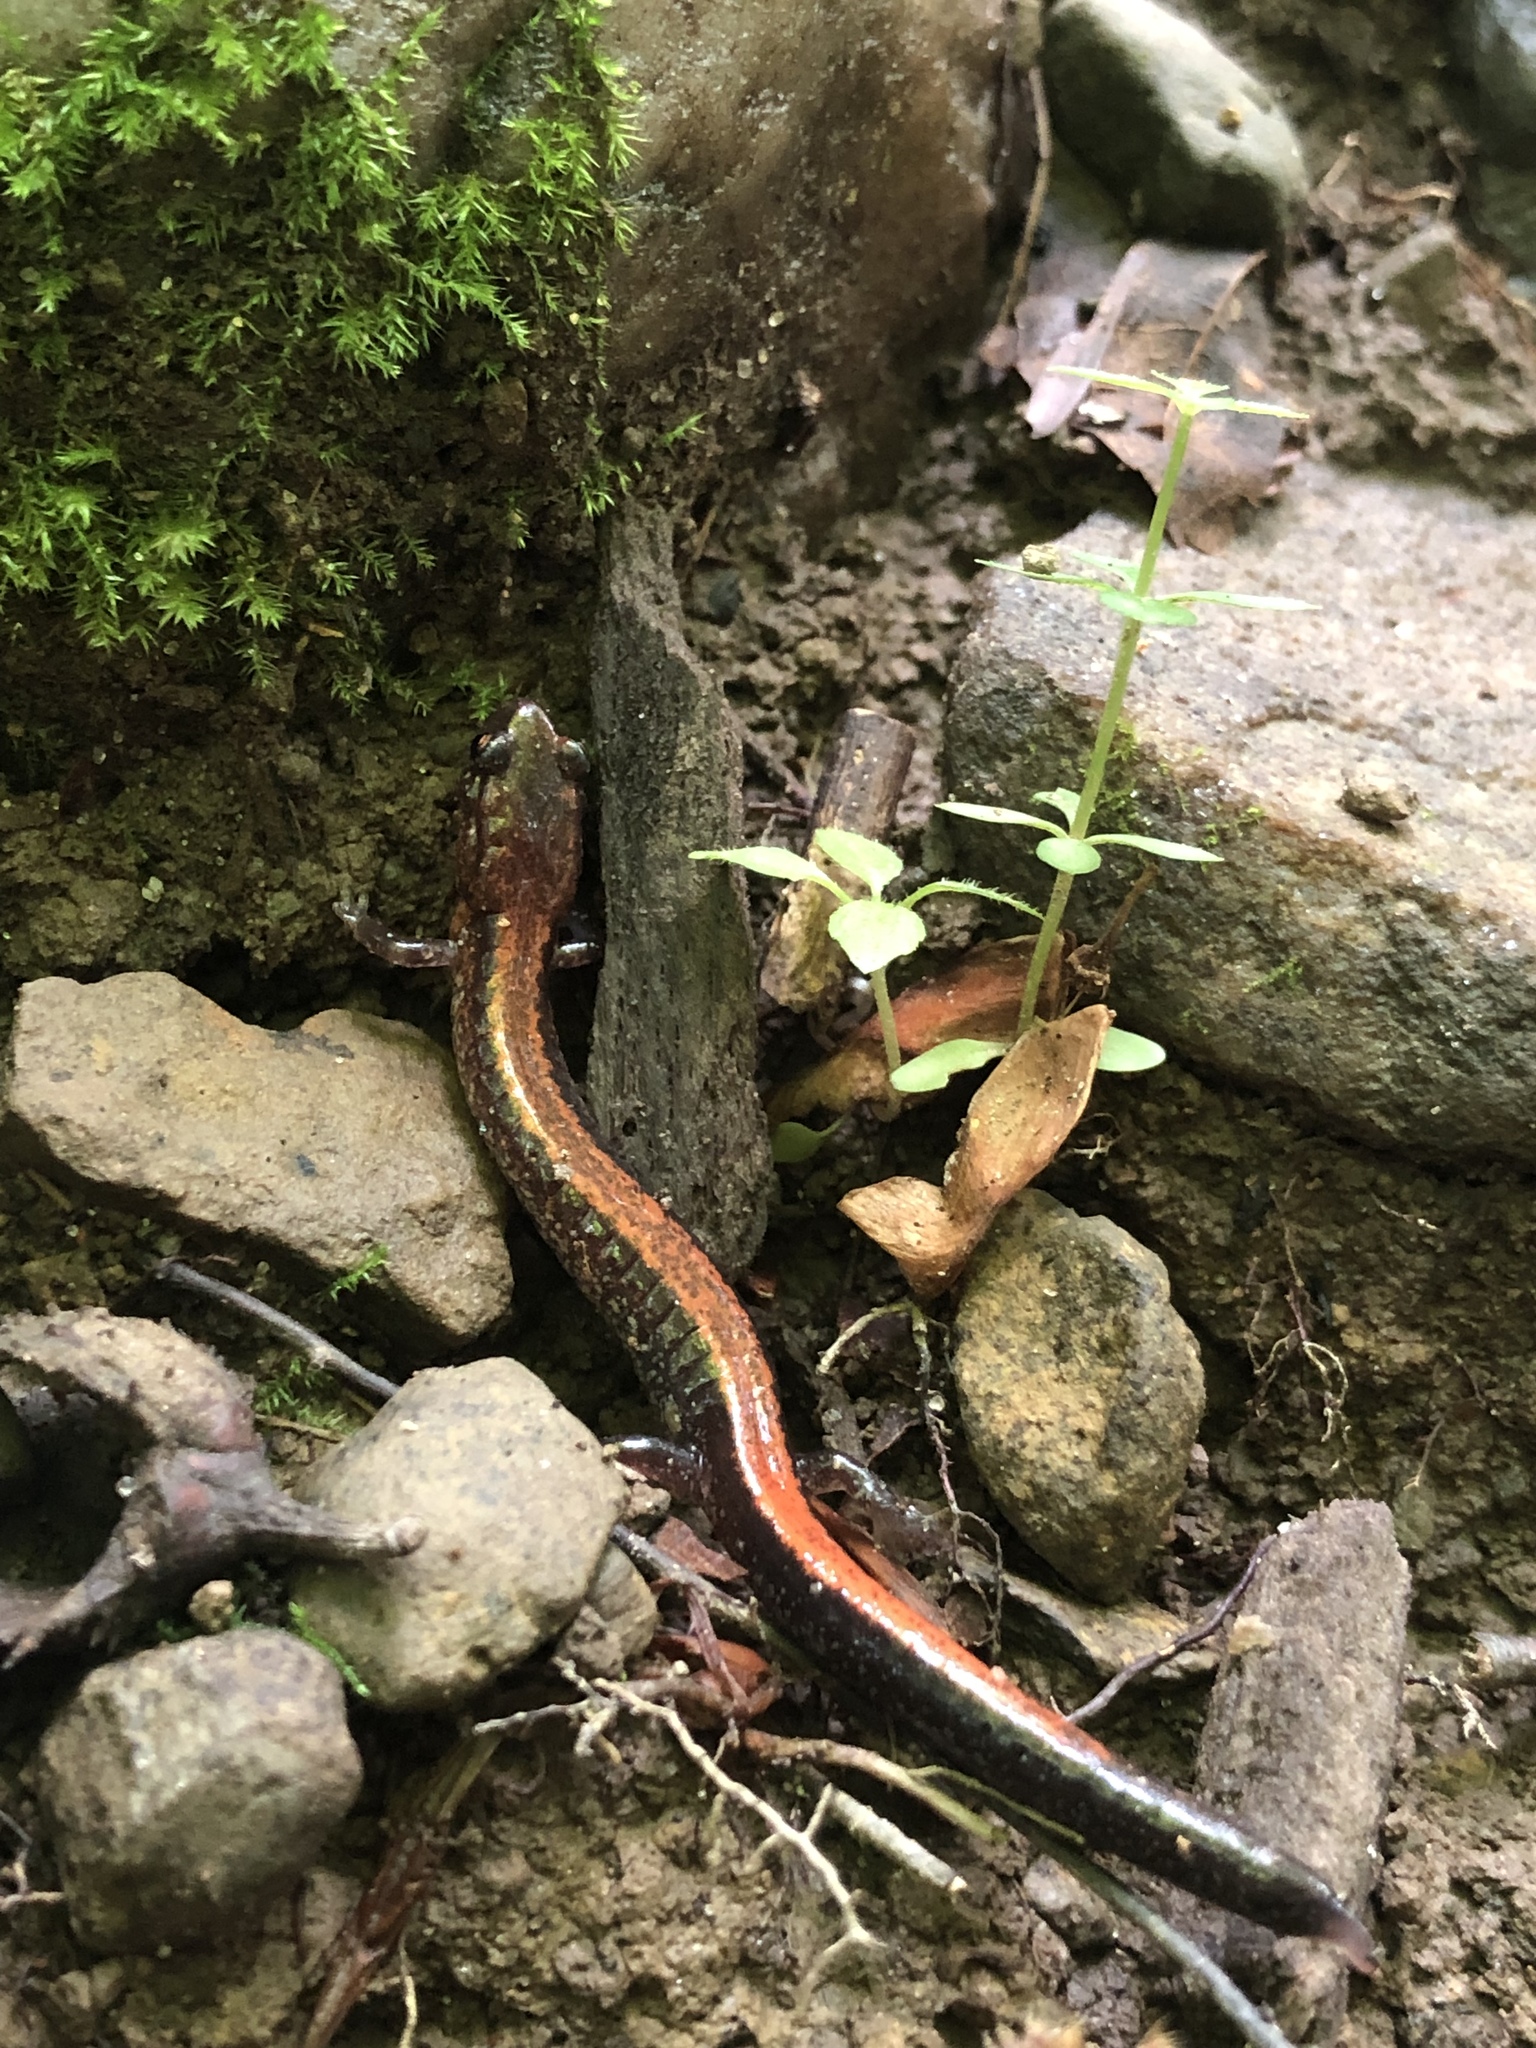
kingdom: Animalia
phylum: Chordata
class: Amphibia
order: Caudata
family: Plethodontidae
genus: Plethodon
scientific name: Plethodon cinereus
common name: Redback salamander
